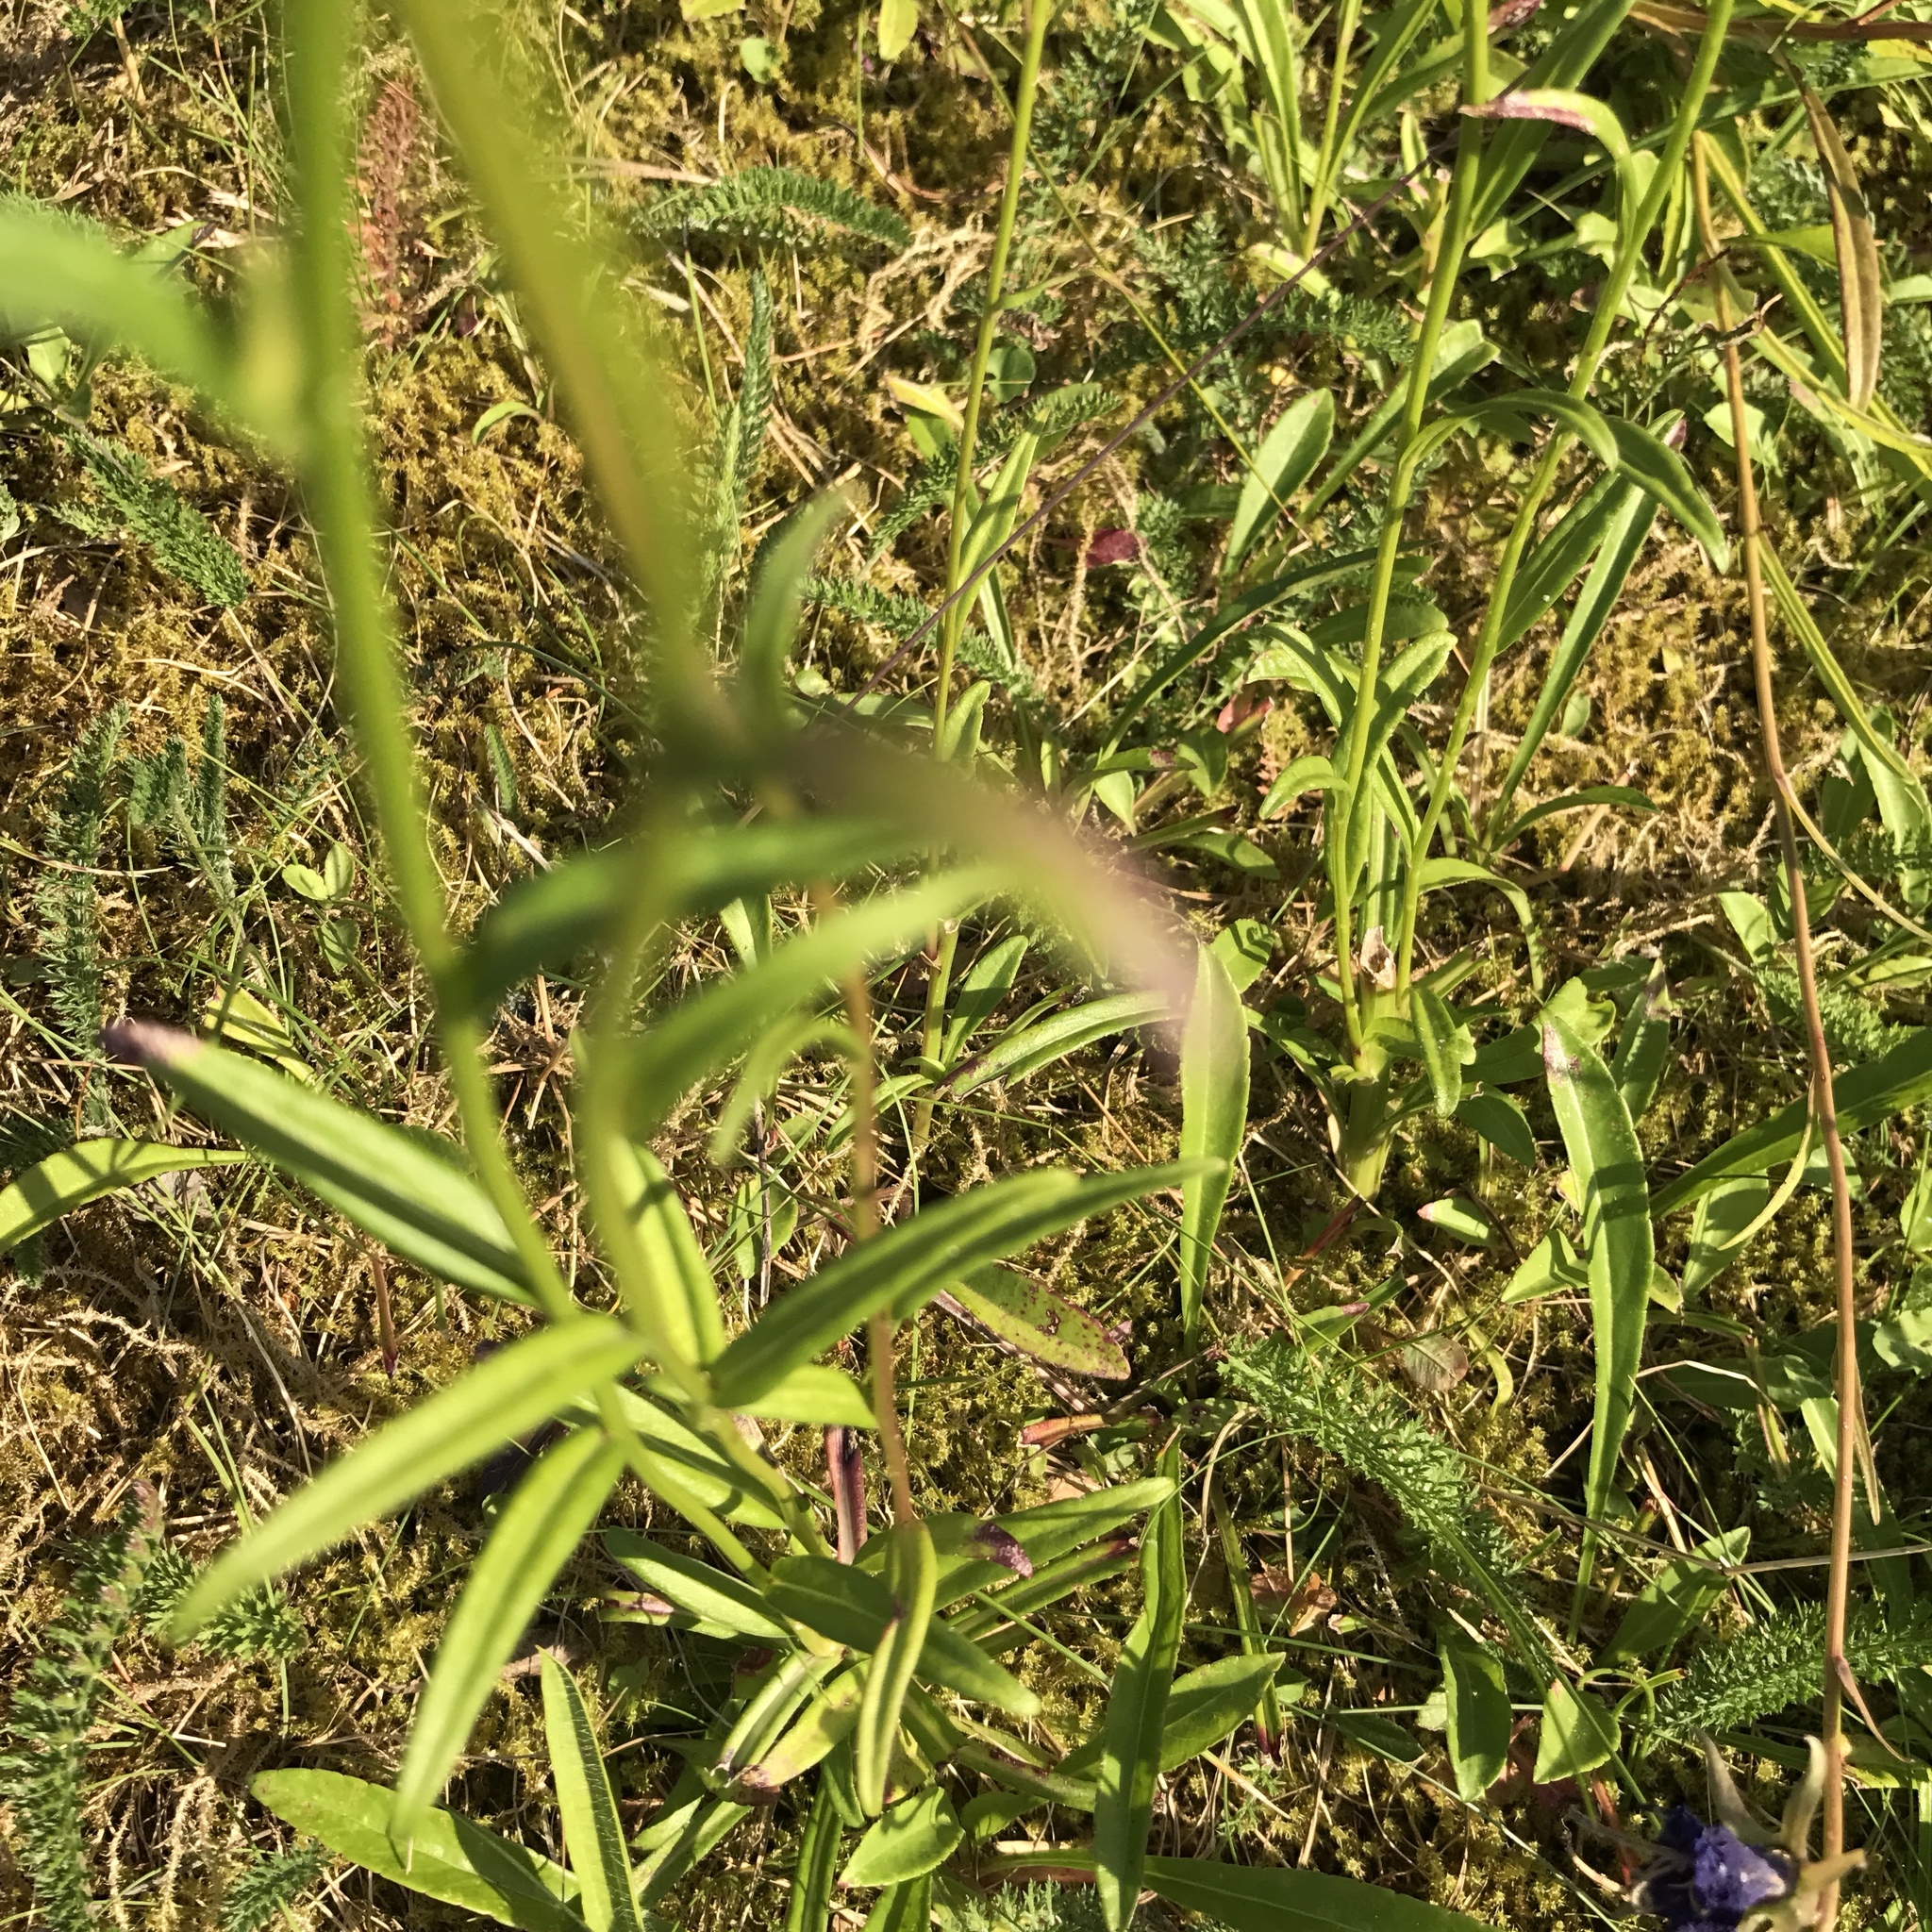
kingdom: Plantae
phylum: Tracheophyta
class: Magnoliopsida
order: Asterales
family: Campanulaceae
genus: Campanula
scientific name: Campanula persicifolia
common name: Peach-leaved bellflower
